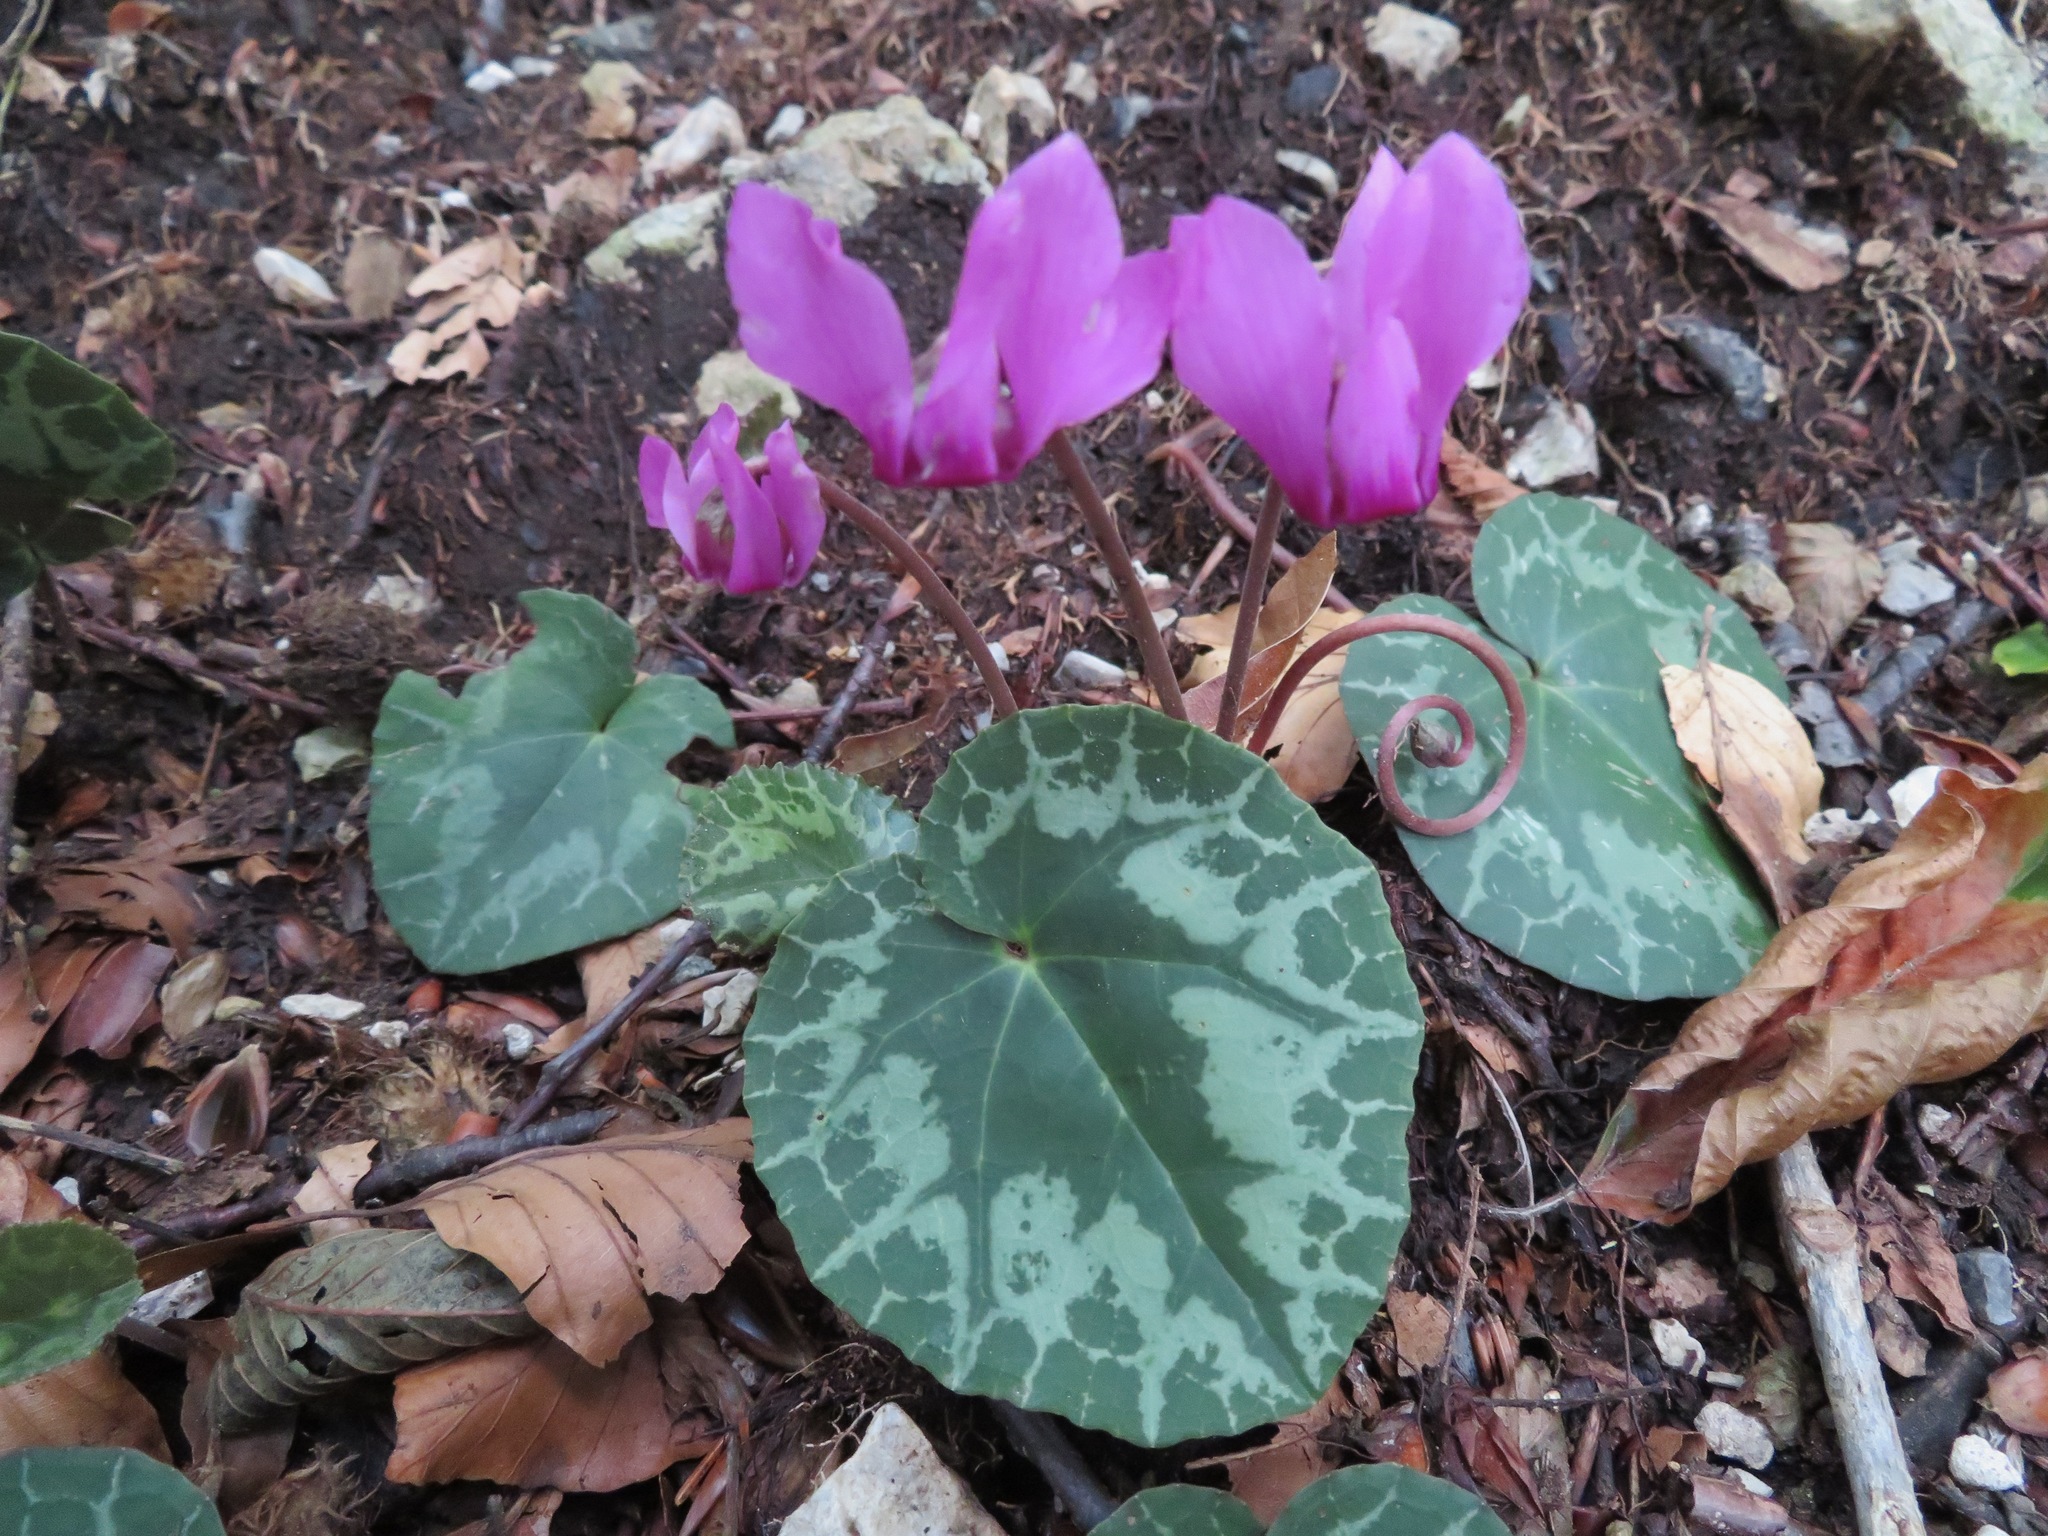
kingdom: Plantae
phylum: Tracheophyta
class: Magnoliopsida
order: Ericales
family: Primulaceae
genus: Cyclamen
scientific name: Cyclamen purpurascens
